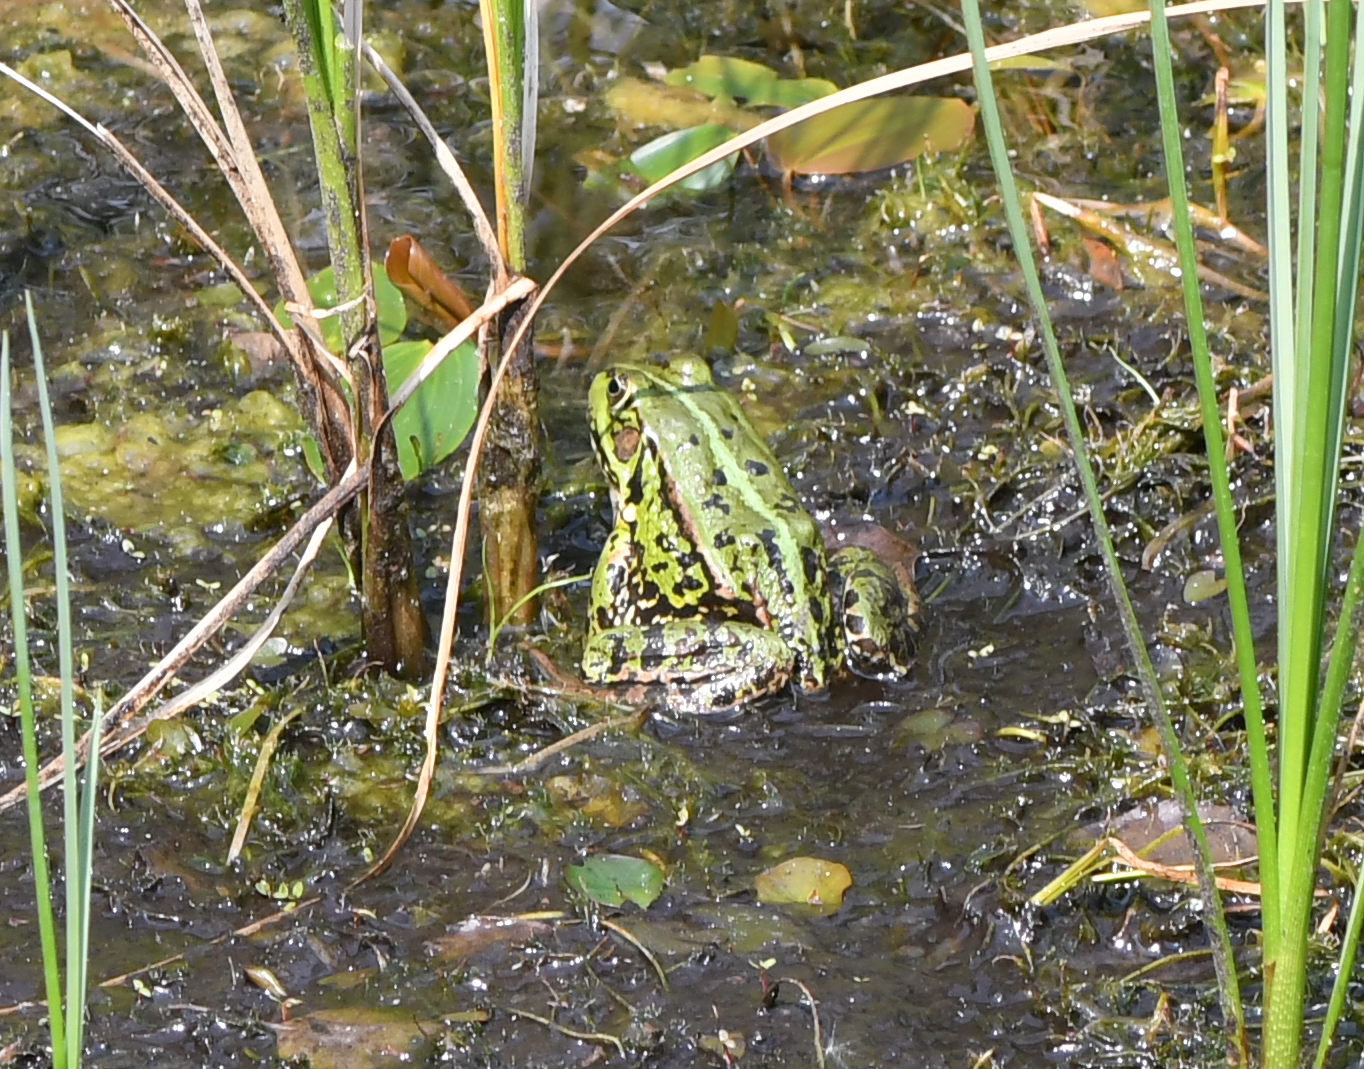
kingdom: Animalia
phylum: Chordata
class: Amphibia
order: Anura
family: Ranidae
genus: Pelophylax
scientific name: Pelophylax lessonae
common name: Pool frog
